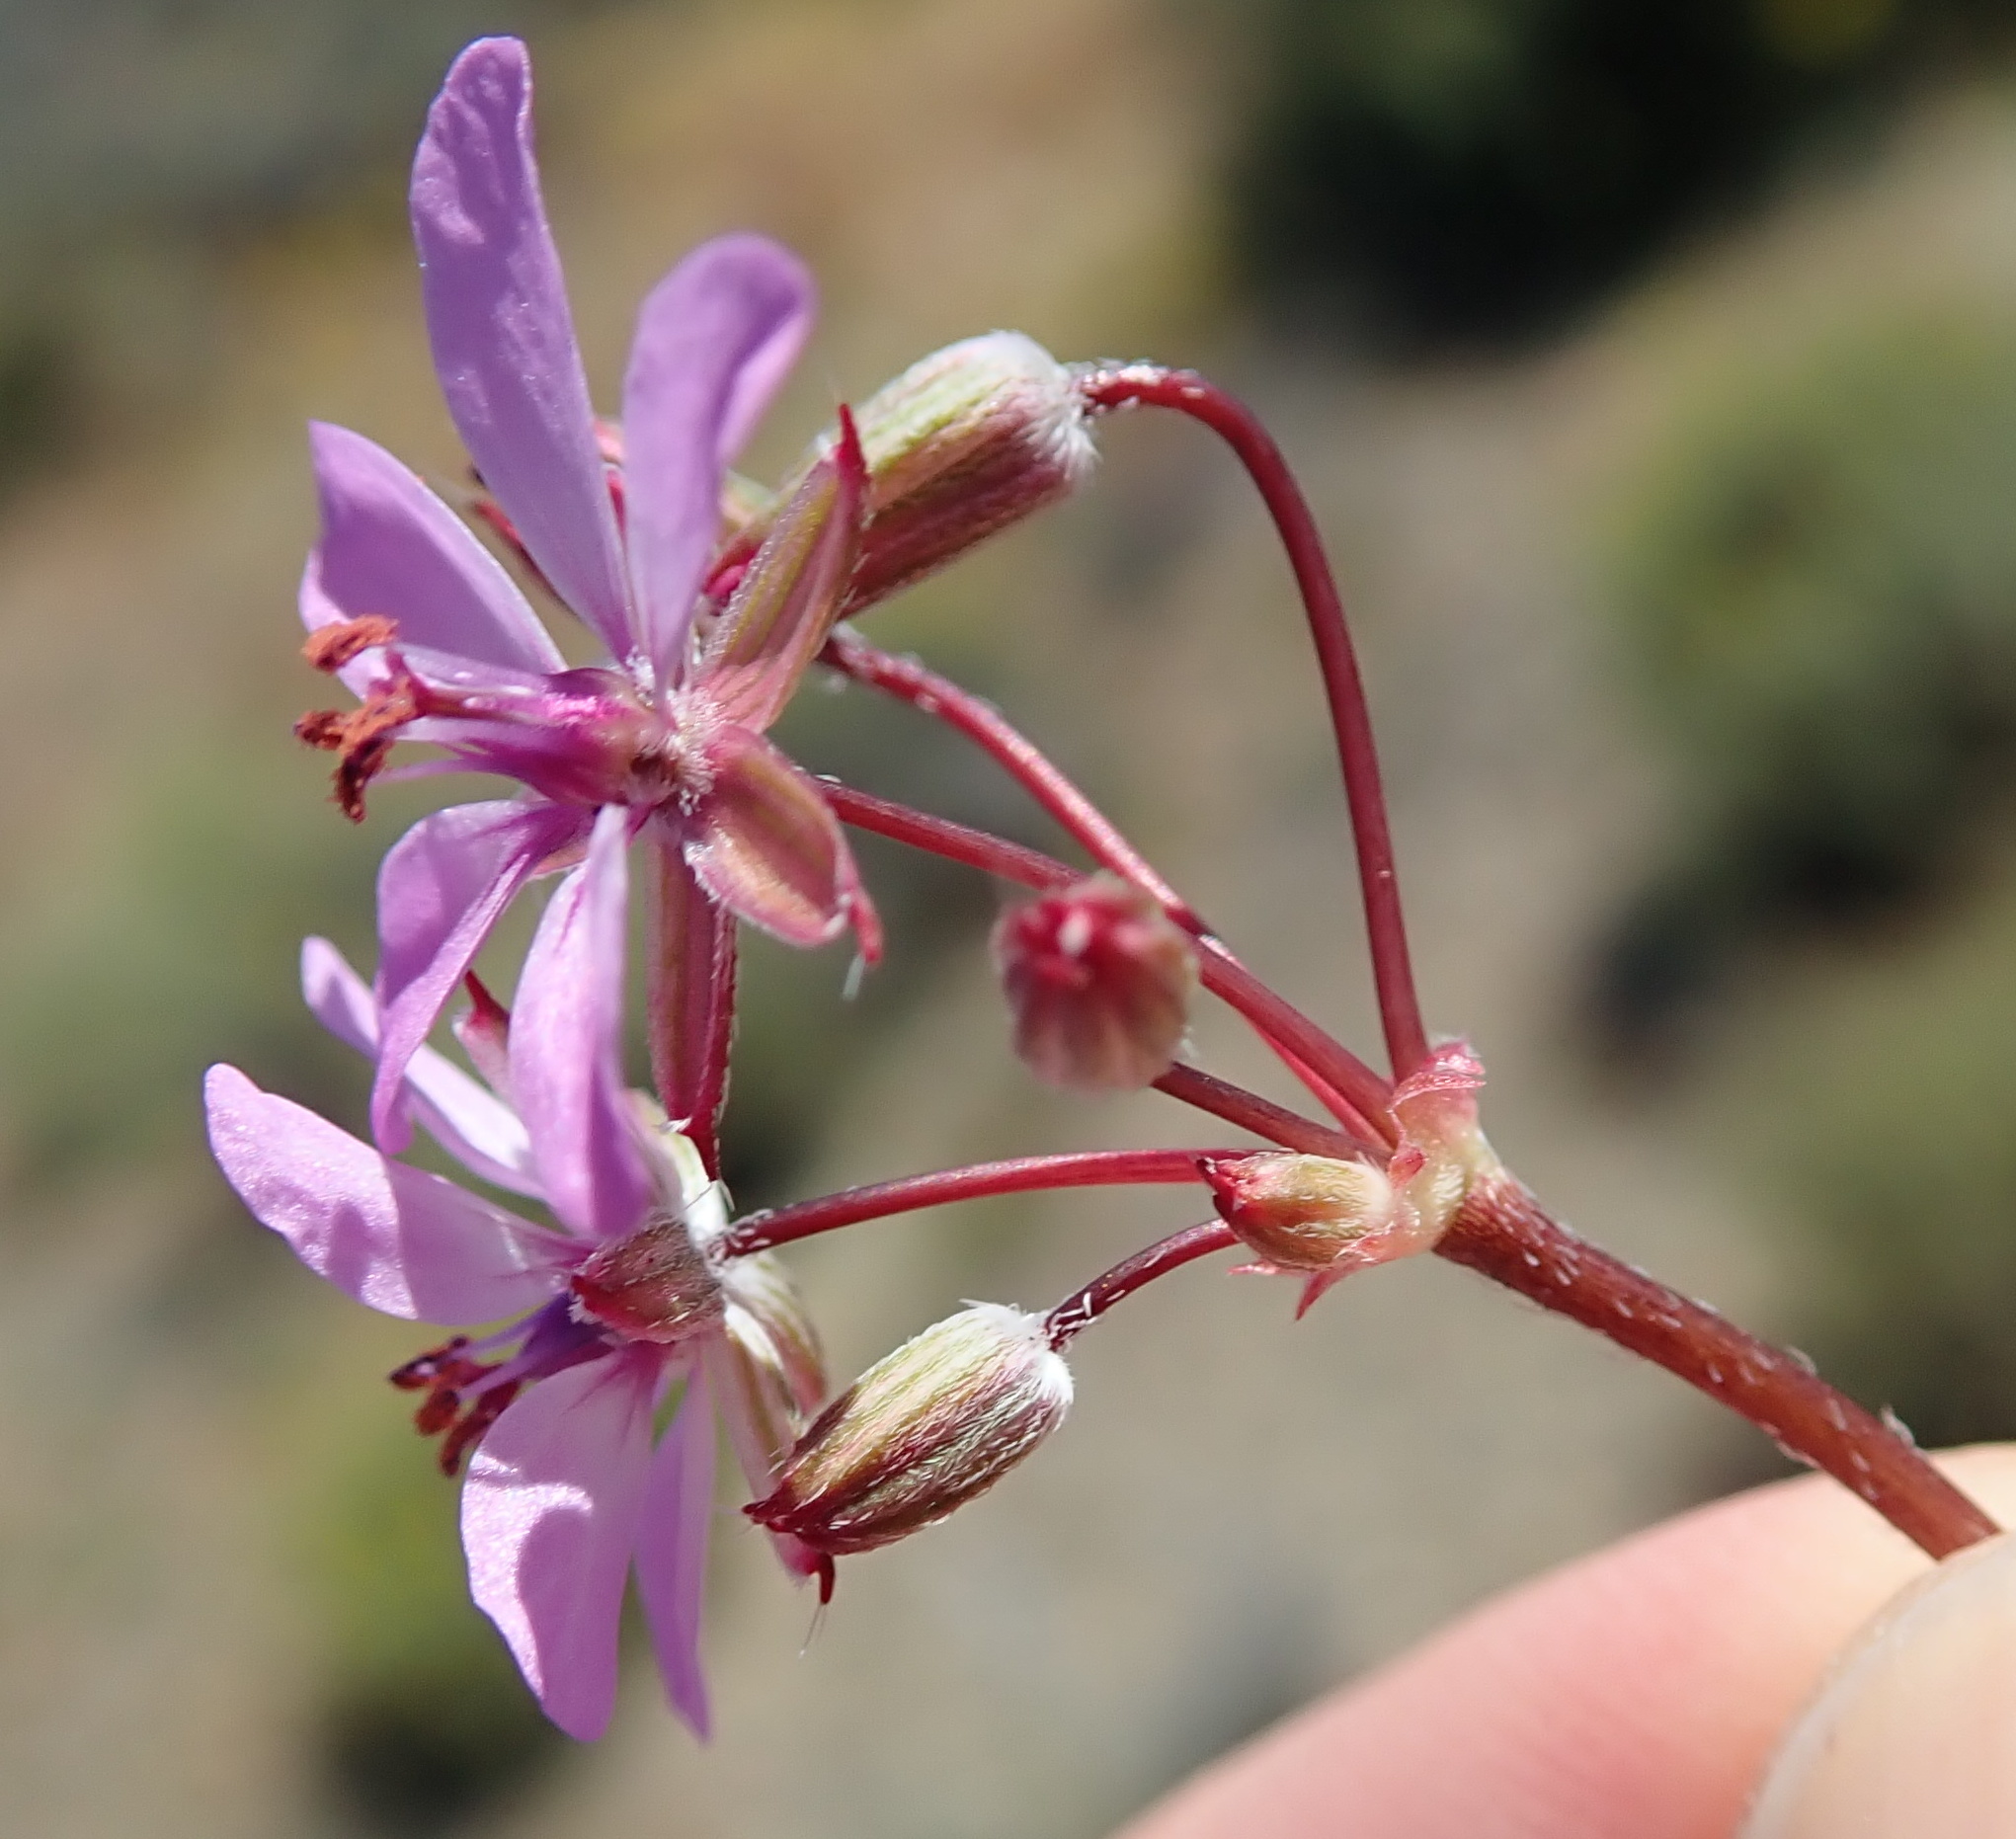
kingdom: Plantae
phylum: Tracheophyta
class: Magnoliopsida
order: Geraniales
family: Geraniaceae
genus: Erodium
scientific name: Erodium moschatum
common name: Musk stork's-bill
